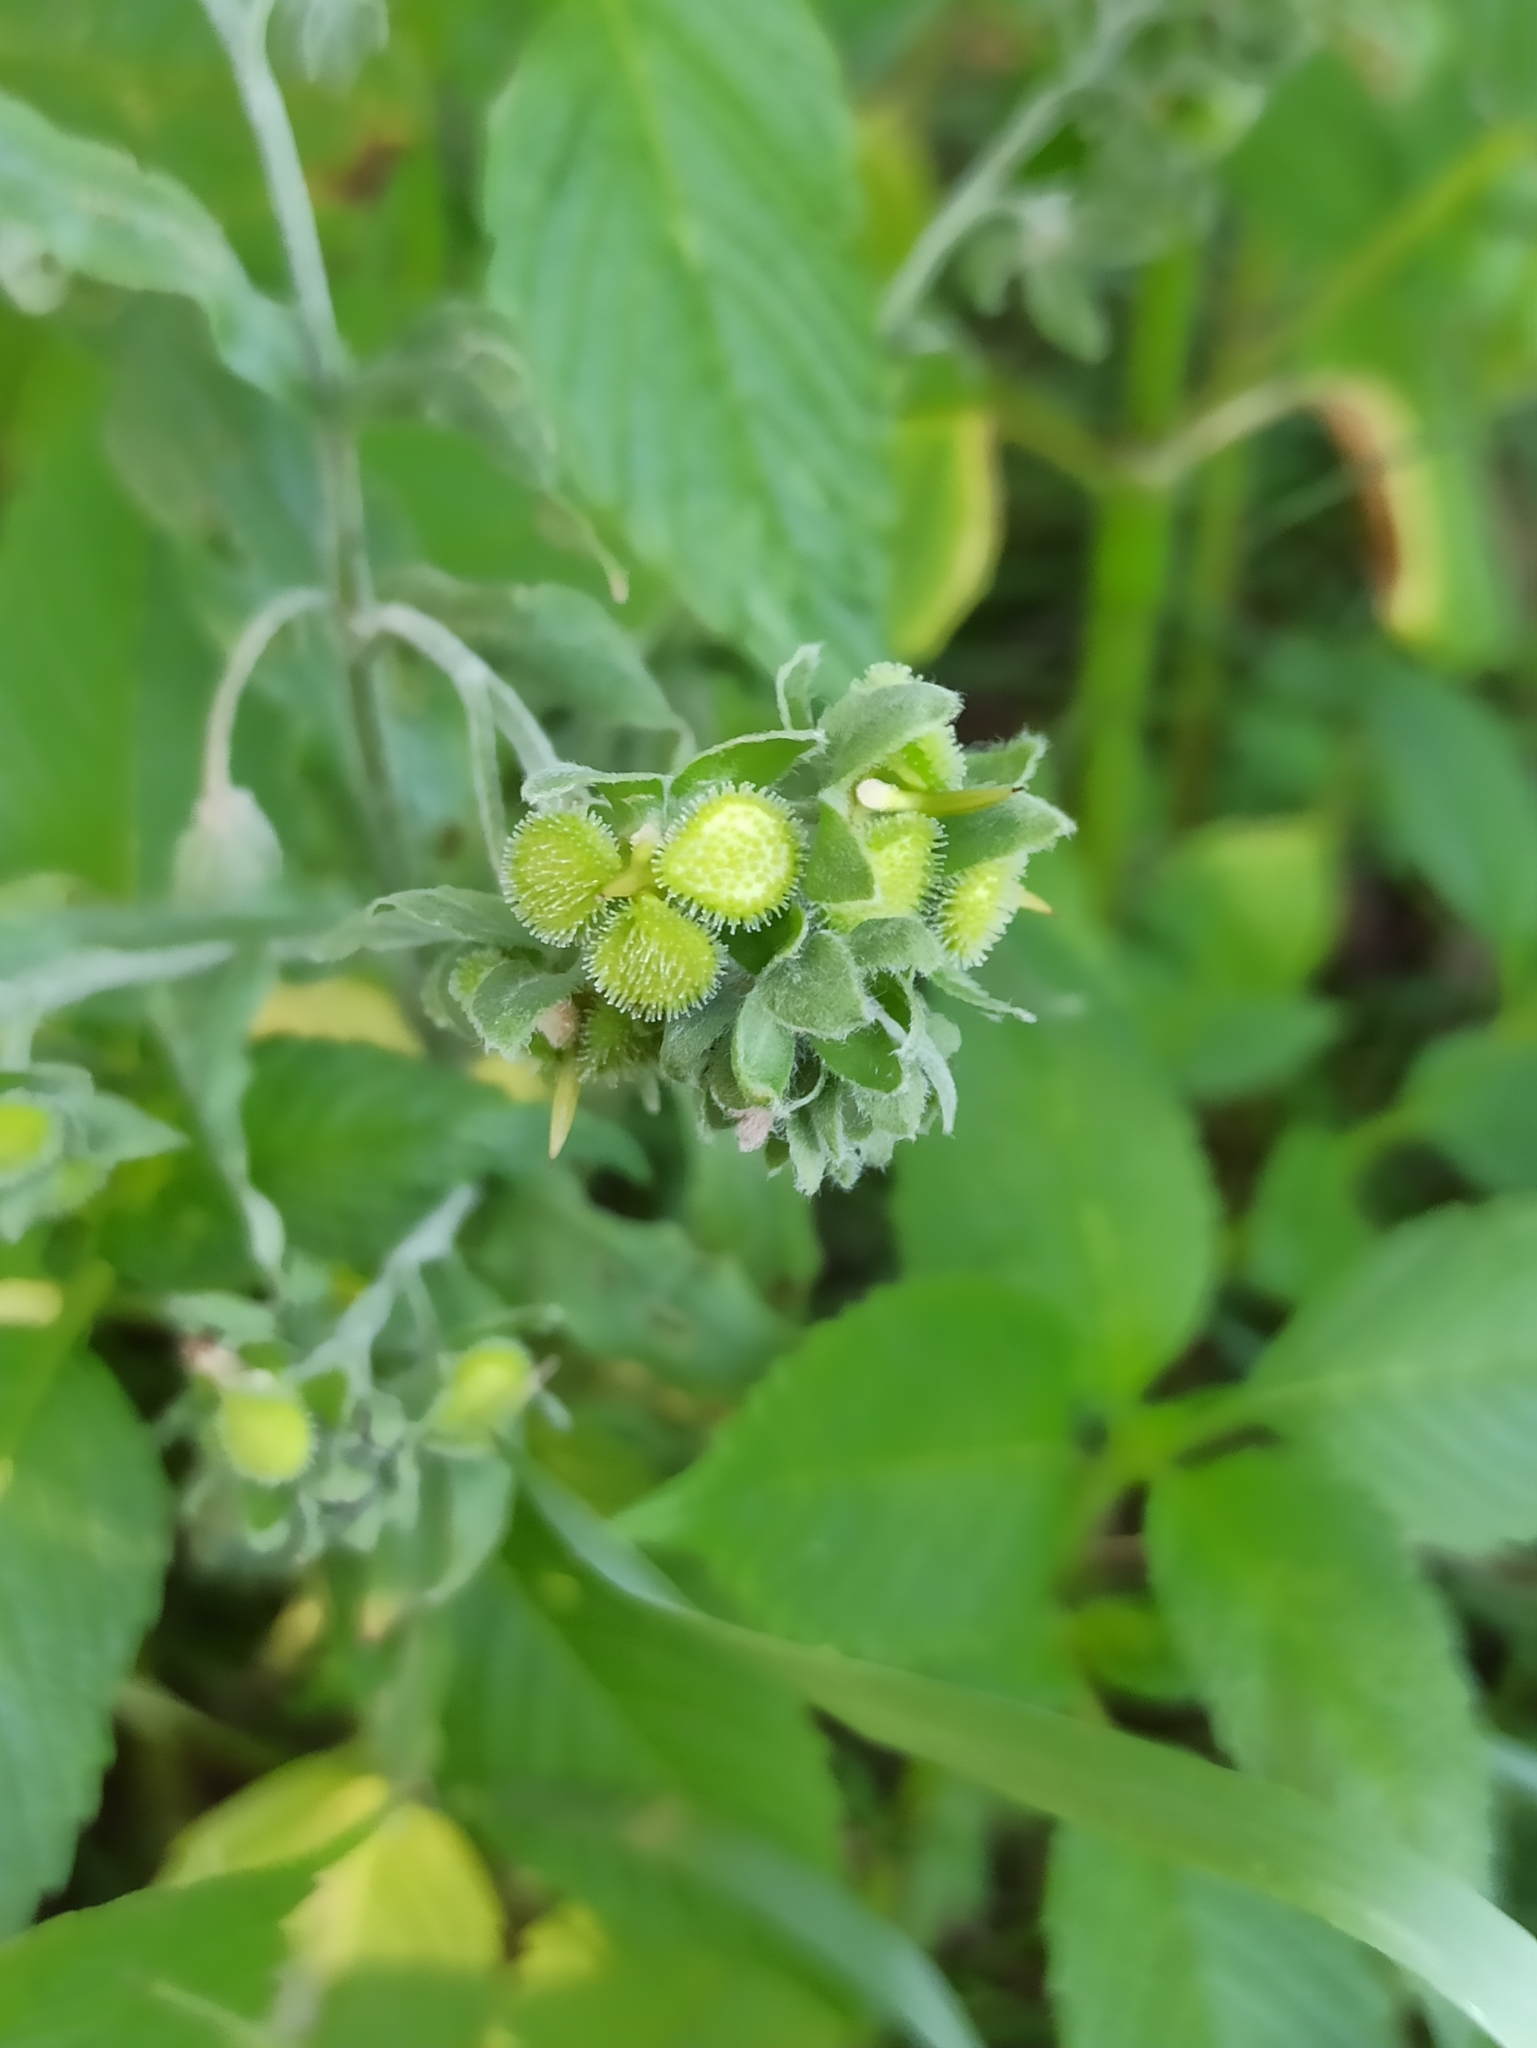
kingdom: Plantae
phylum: Tracheophyta
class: Magnoliopsida
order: Boraginales
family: Boraginaceae
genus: Cynoglossum
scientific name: Cynoglossum officinale
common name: Hound's-tongue
